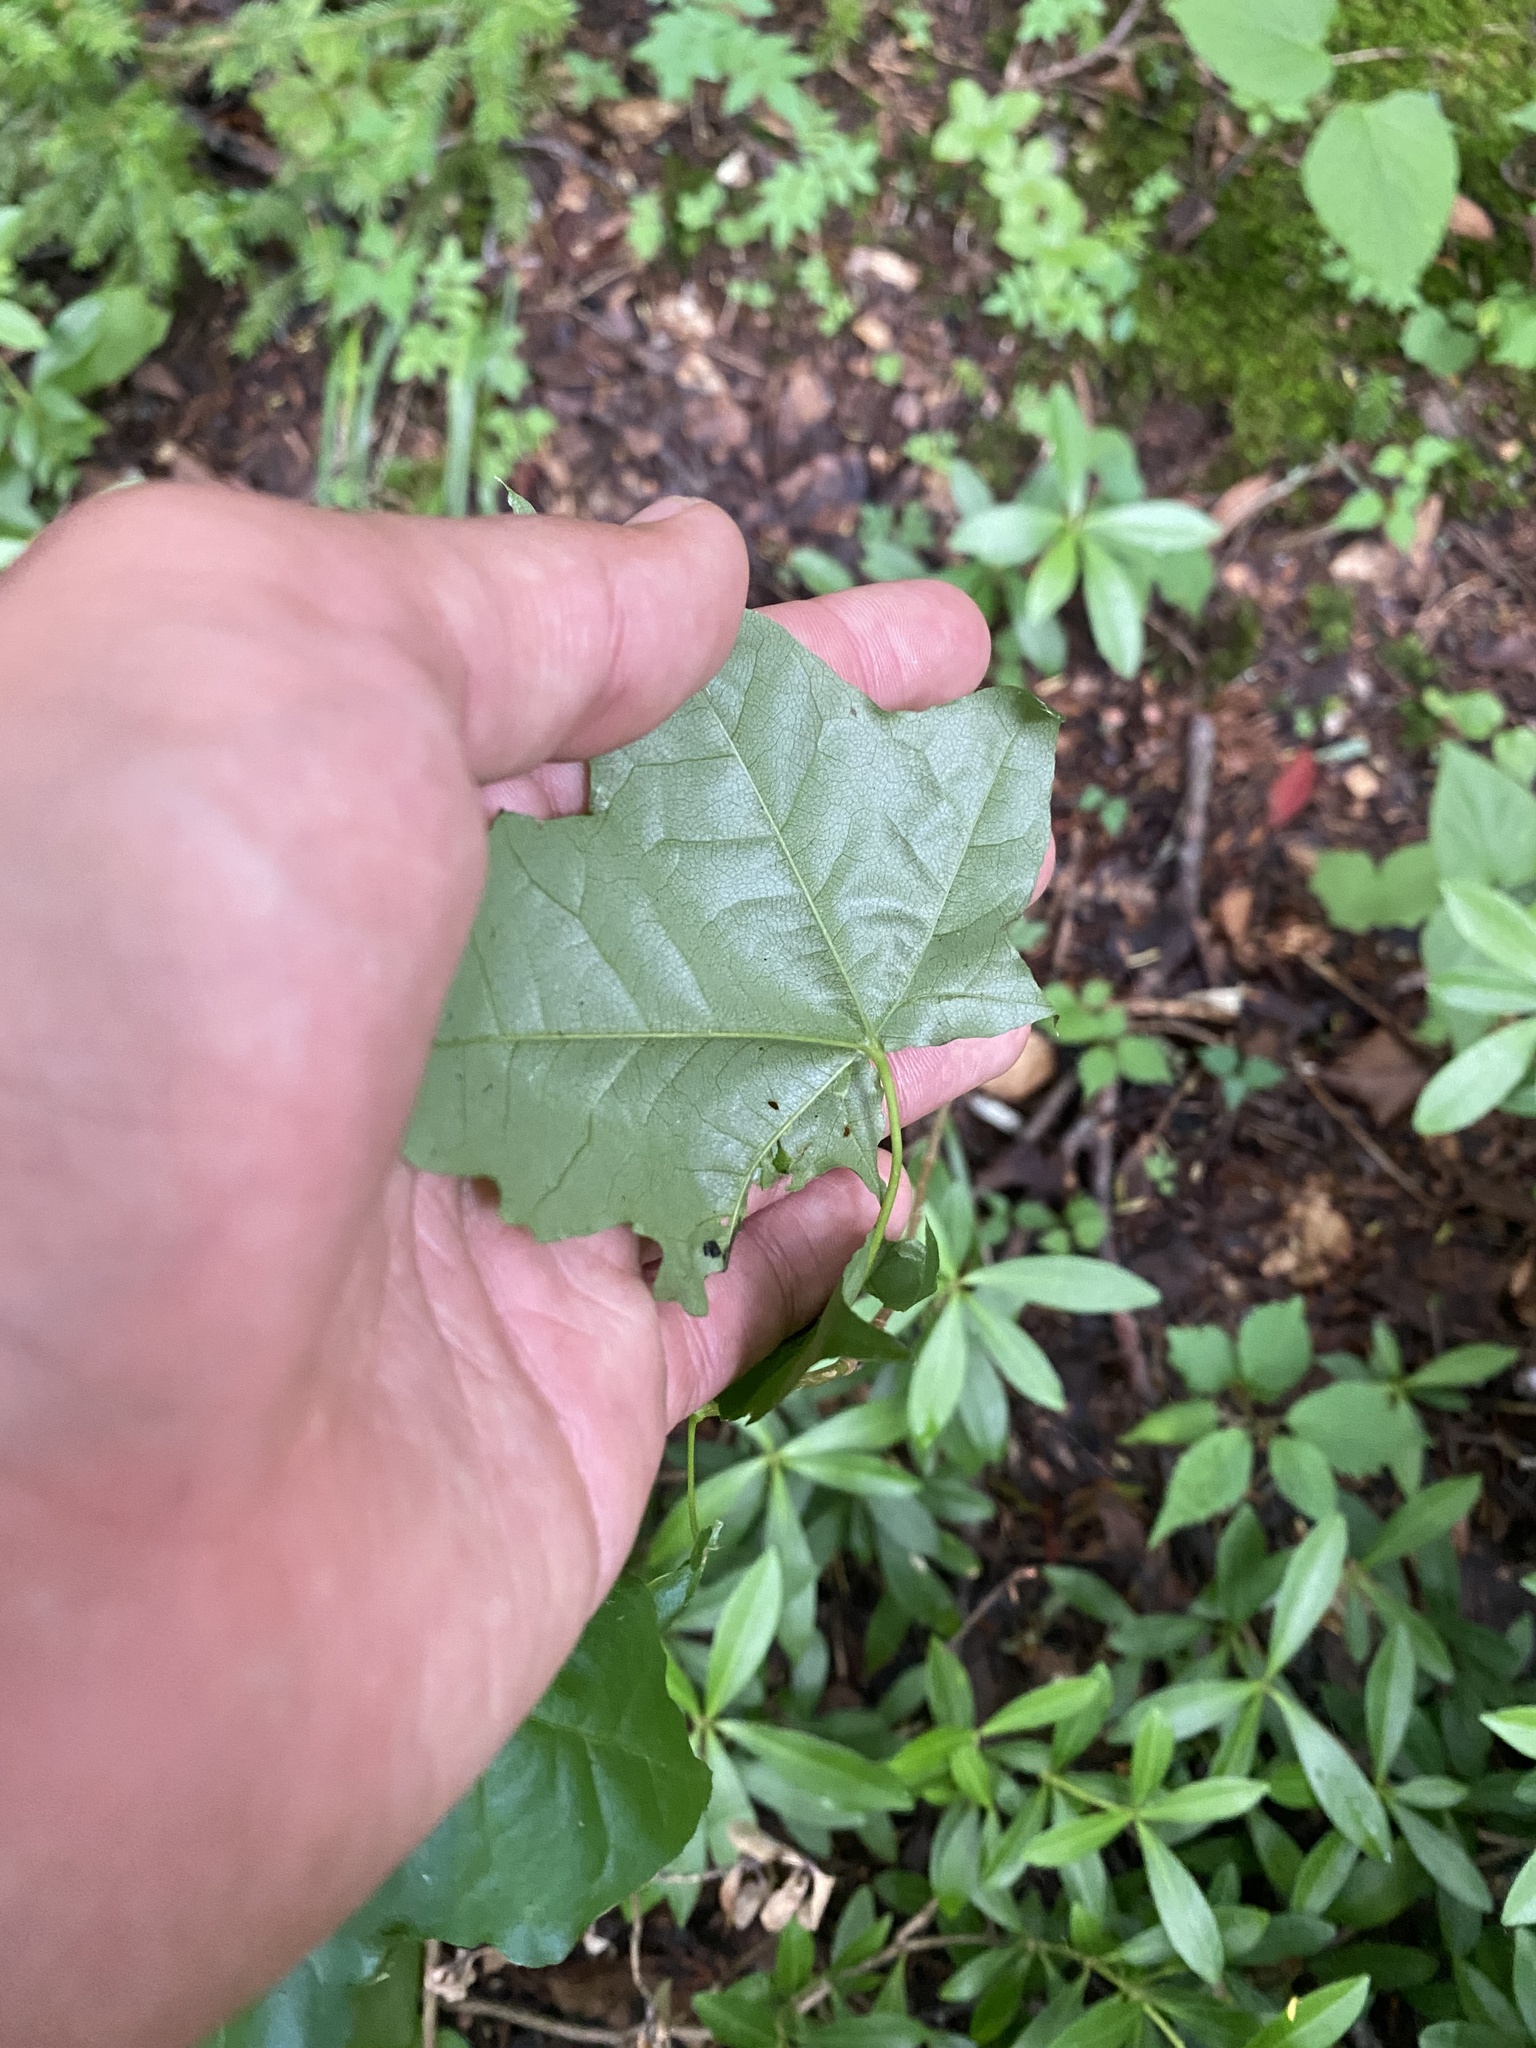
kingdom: Plantae
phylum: Tracheophyta
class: Magnoliopsida
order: Sapindales
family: Sapindaceae
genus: Acer
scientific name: Acer pictum
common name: The painted maple
